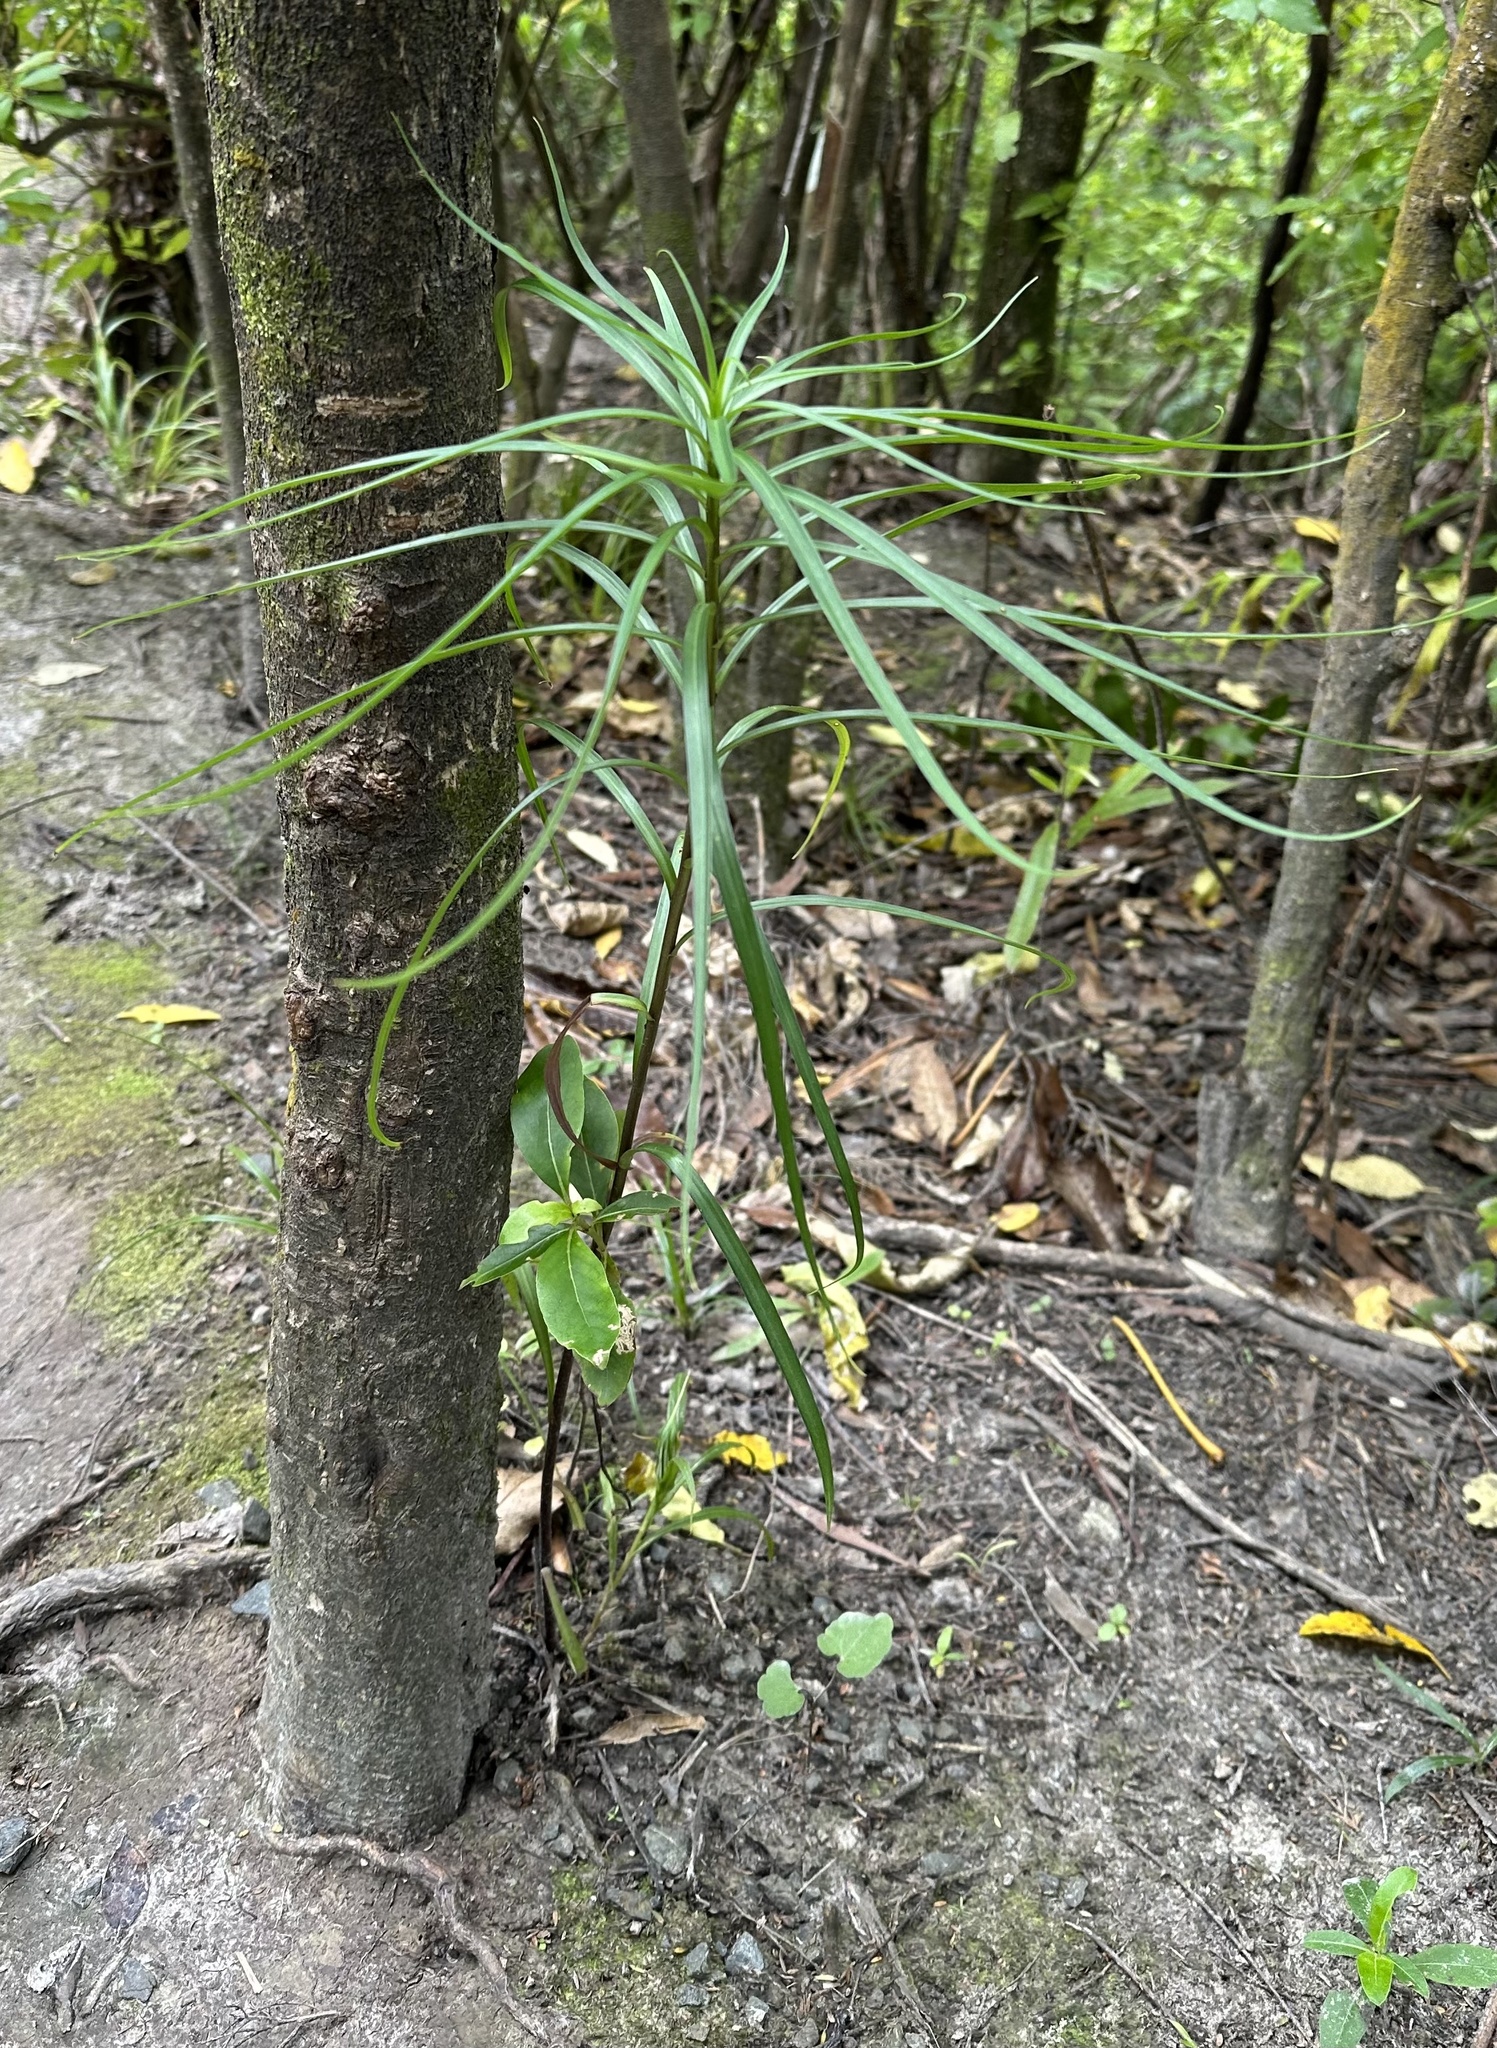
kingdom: Plantae
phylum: Tracheophyta
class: Liliopsida
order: Liliales
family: Liliaceae
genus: Lilium
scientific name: Lilium formosanum
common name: Formosa lily
